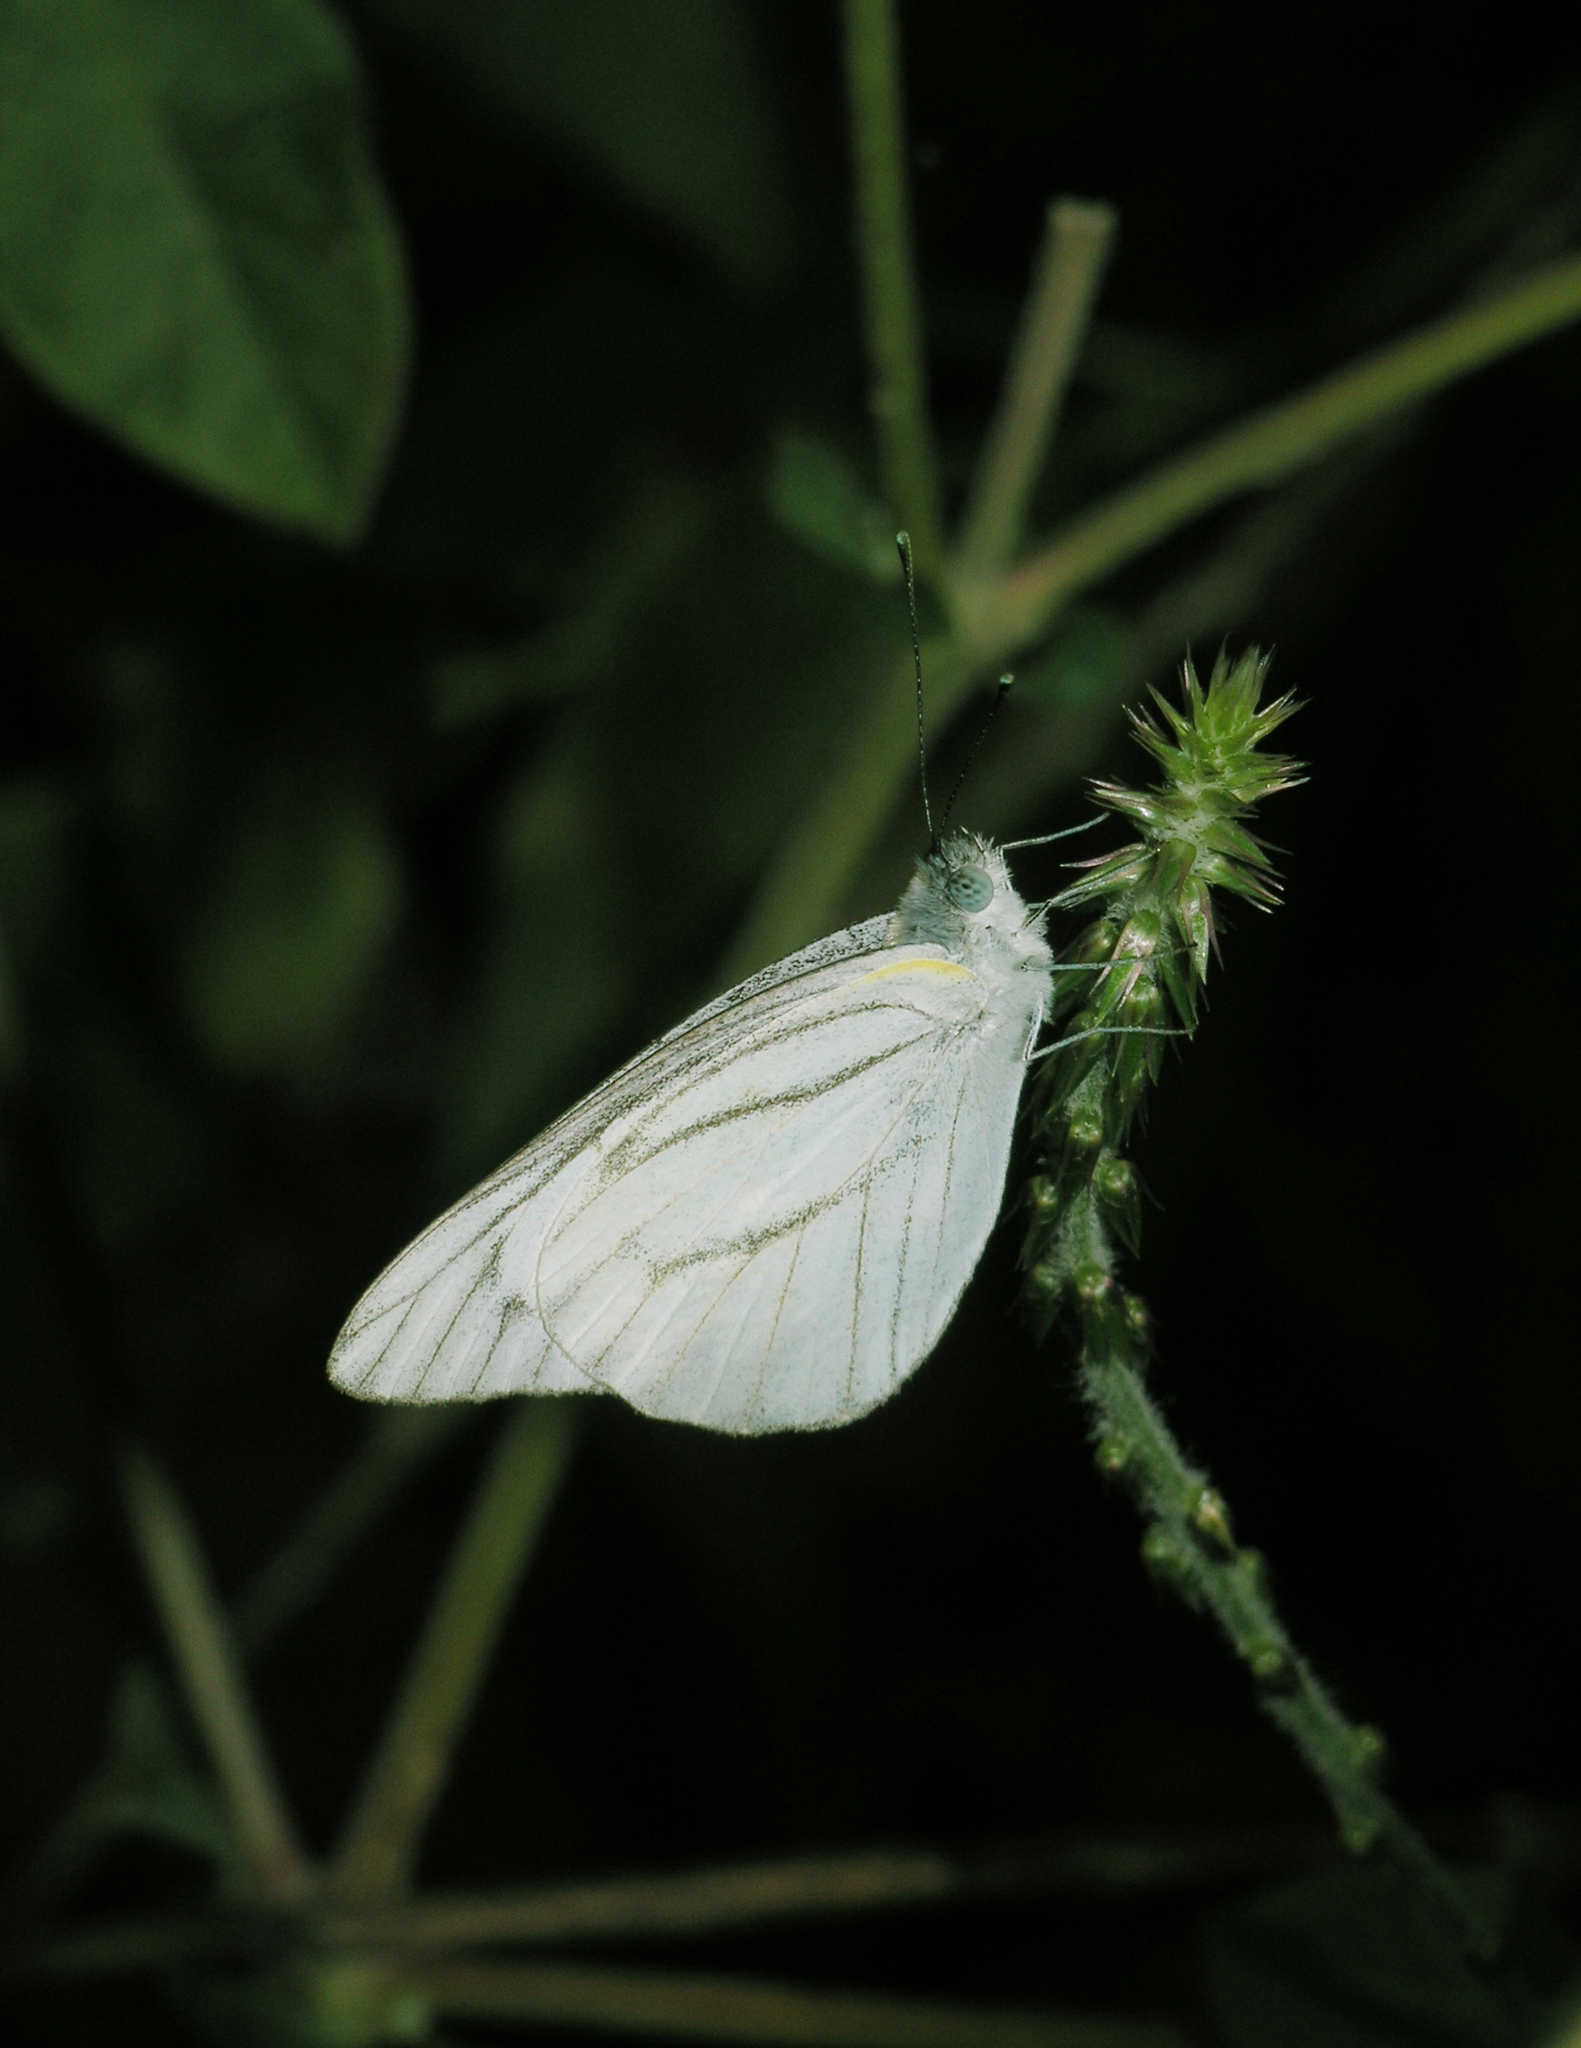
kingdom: Animalia
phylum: Arthropoda
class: Insecta
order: Lepidoptera
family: Pieridae
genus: Appias
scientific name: Appias libythea
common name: Striped albatross
